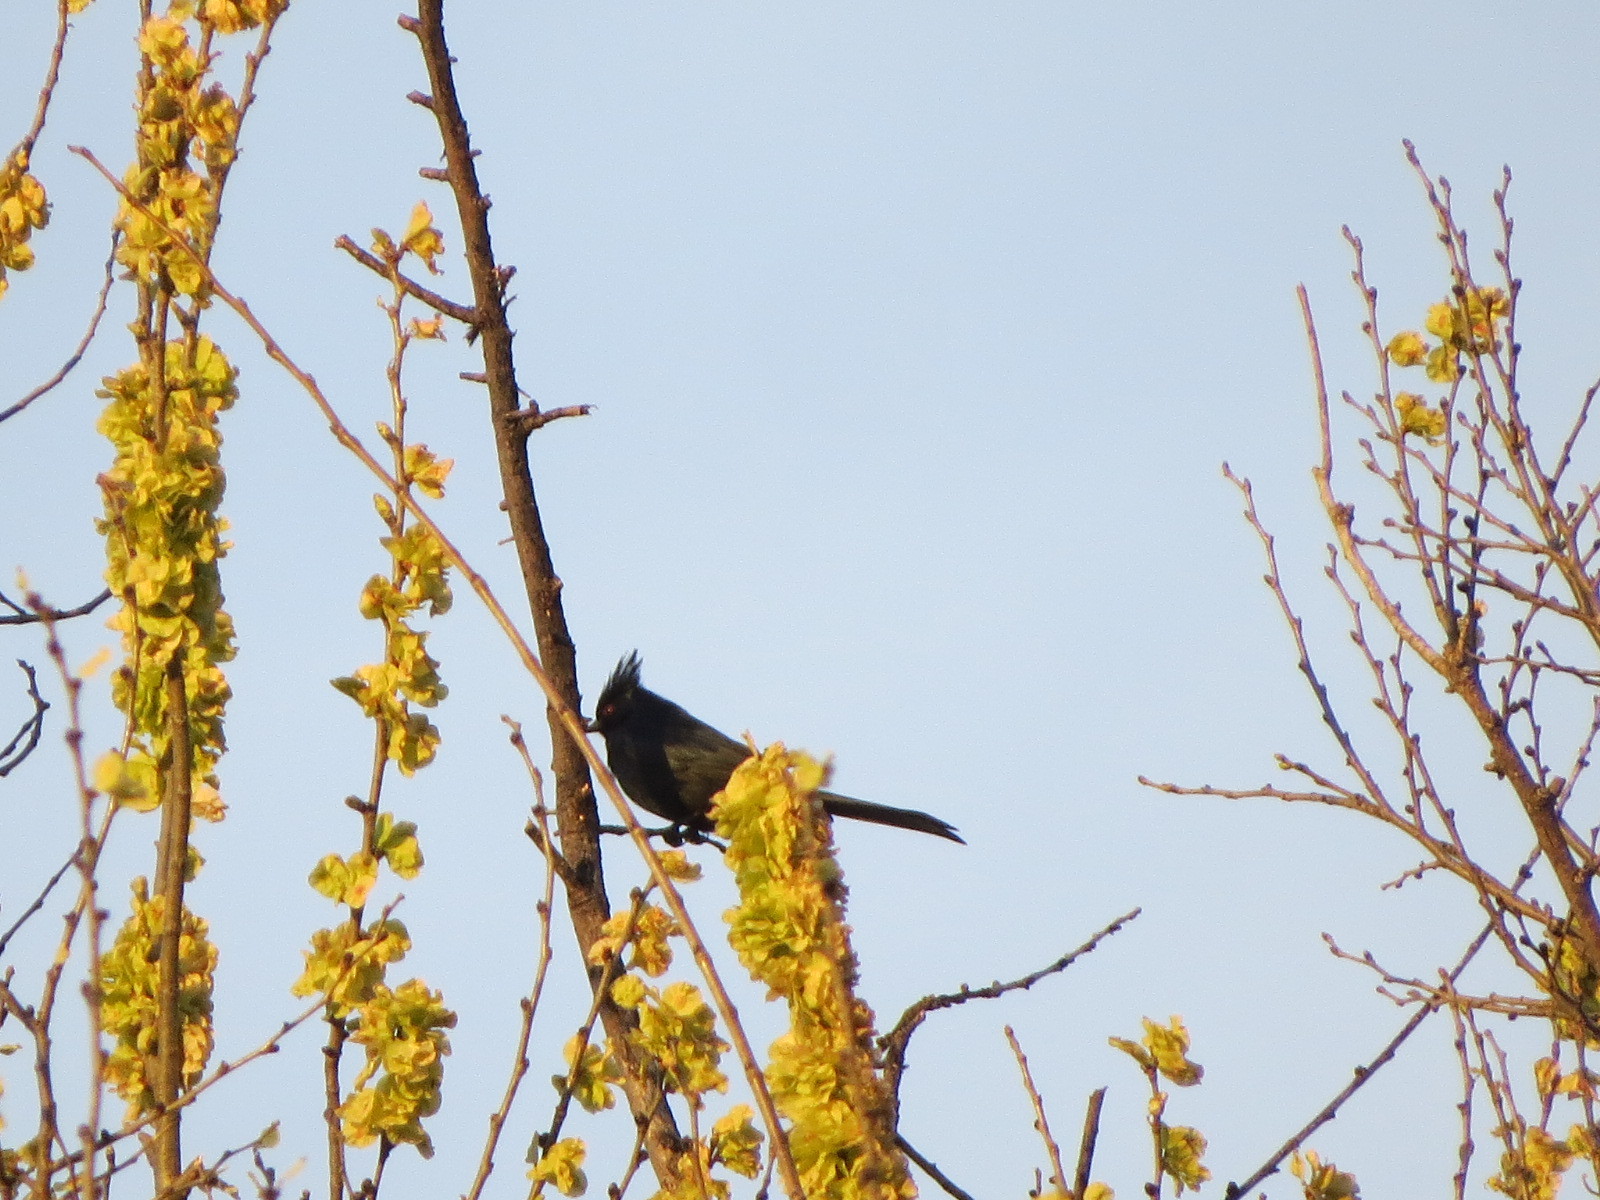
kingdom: Animalia
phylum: Chordata
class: Aves
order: Passeriformes
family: Ptilogonatidae
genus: Phainopepla
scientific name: Phainopepla nitens
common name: Phainopepla
